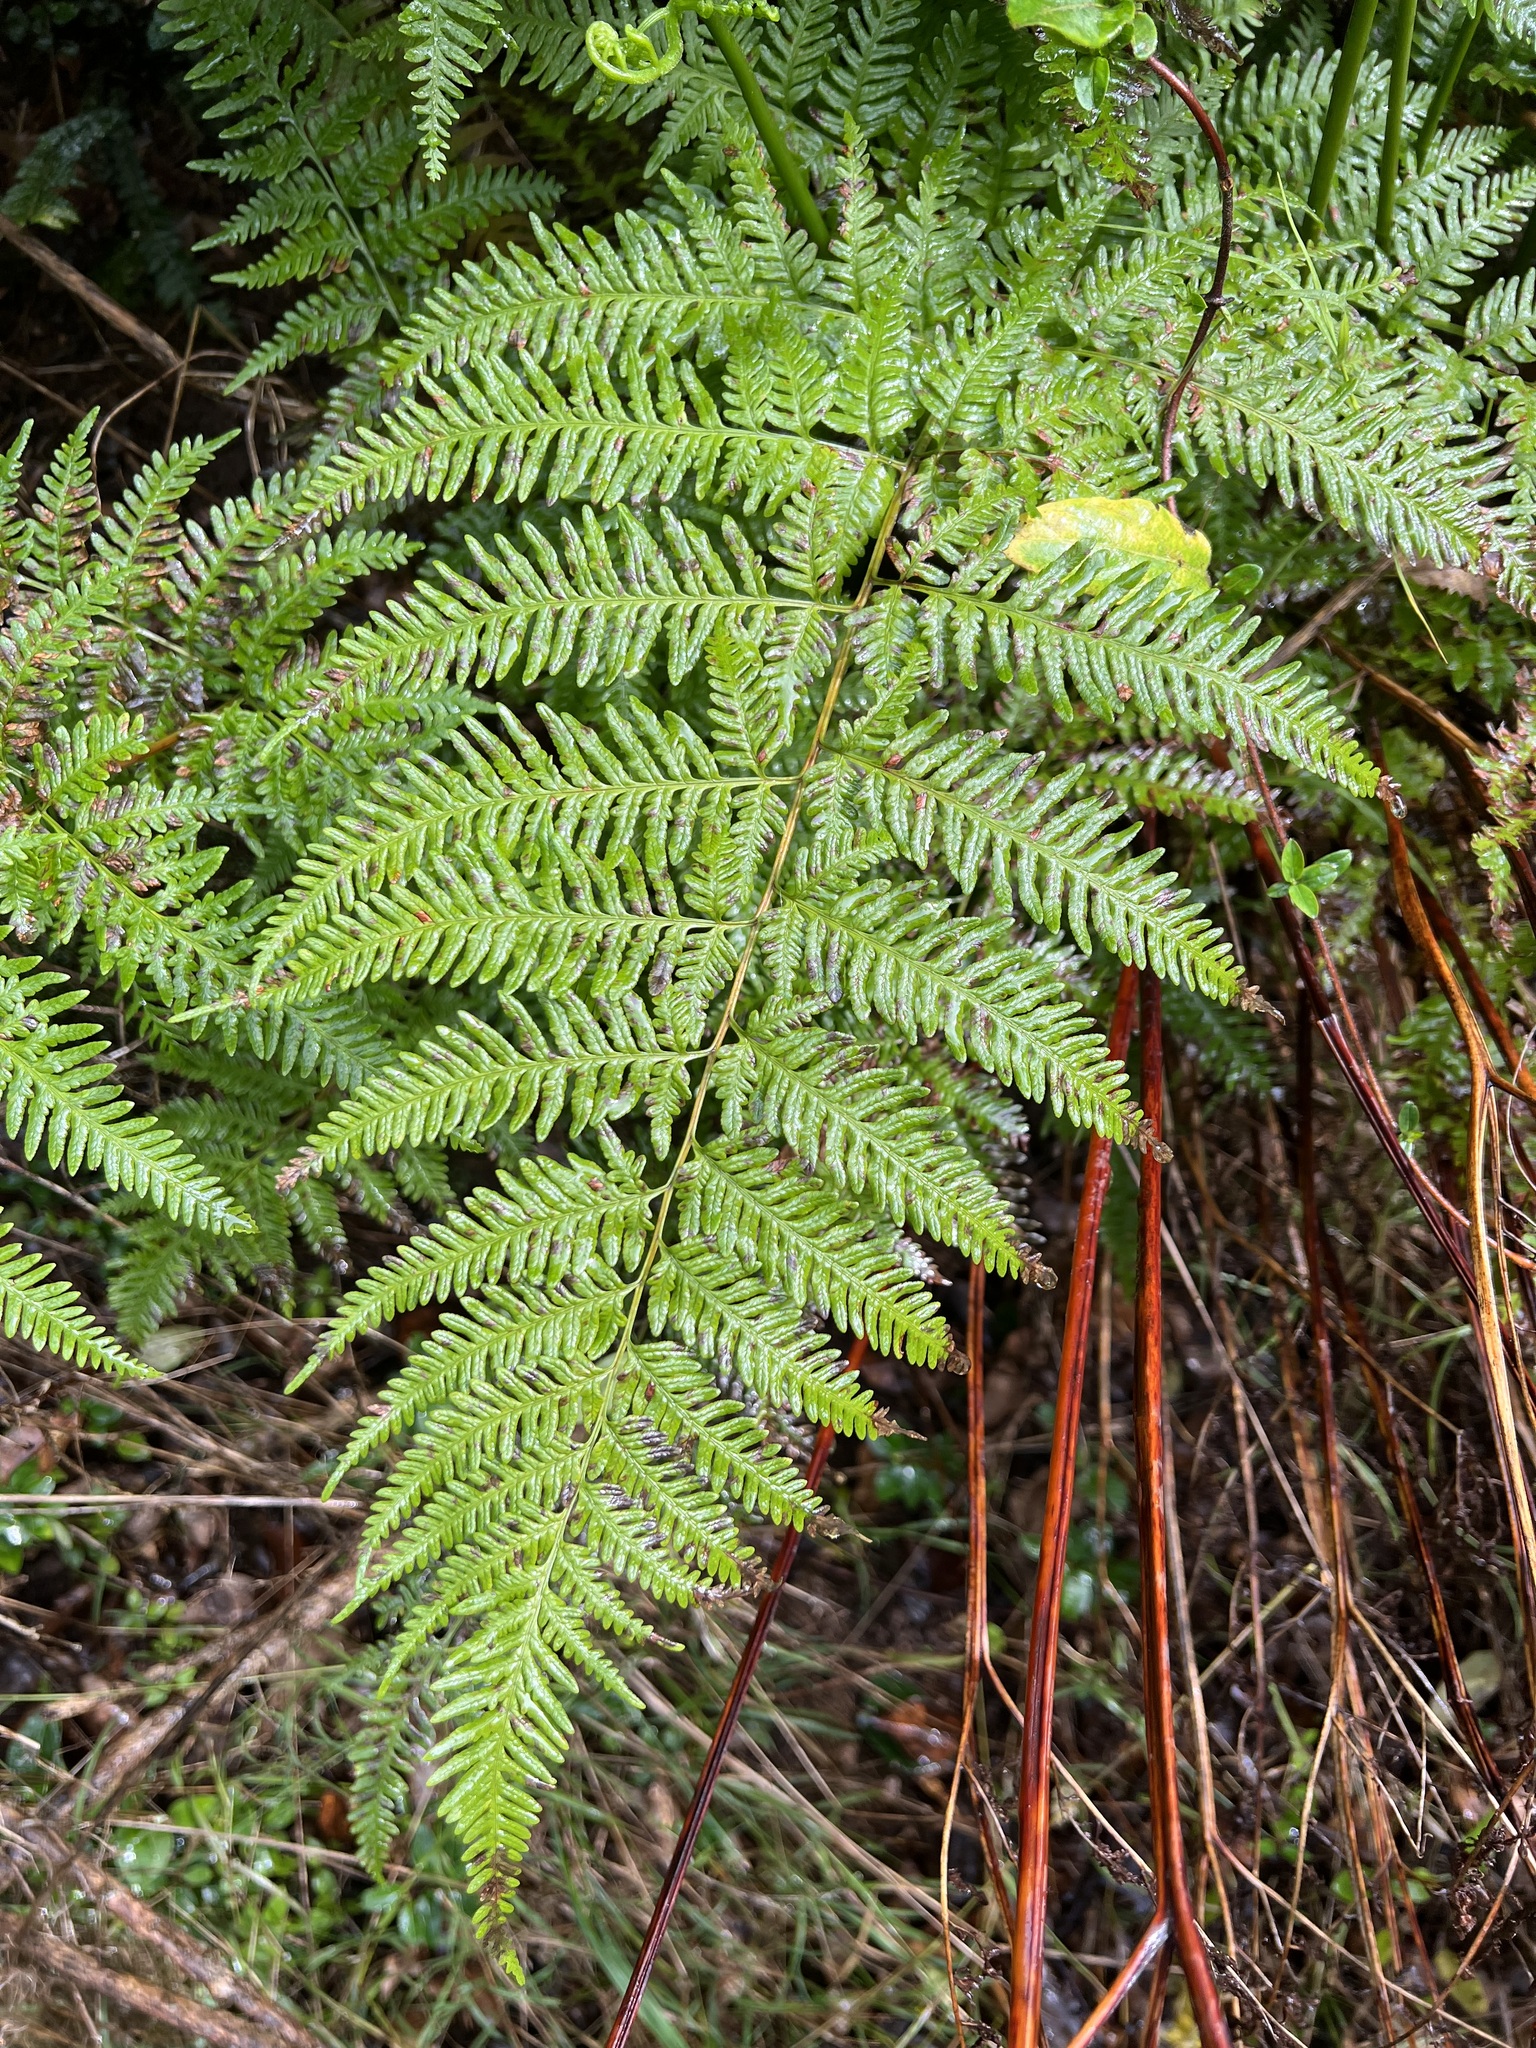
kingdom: Plantae
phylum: Tracheophyta
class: Polypodiopsida
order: Polypodiales
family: Pteridaceae
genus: Pteris
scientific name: Pteris tremula
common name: Australian brake
